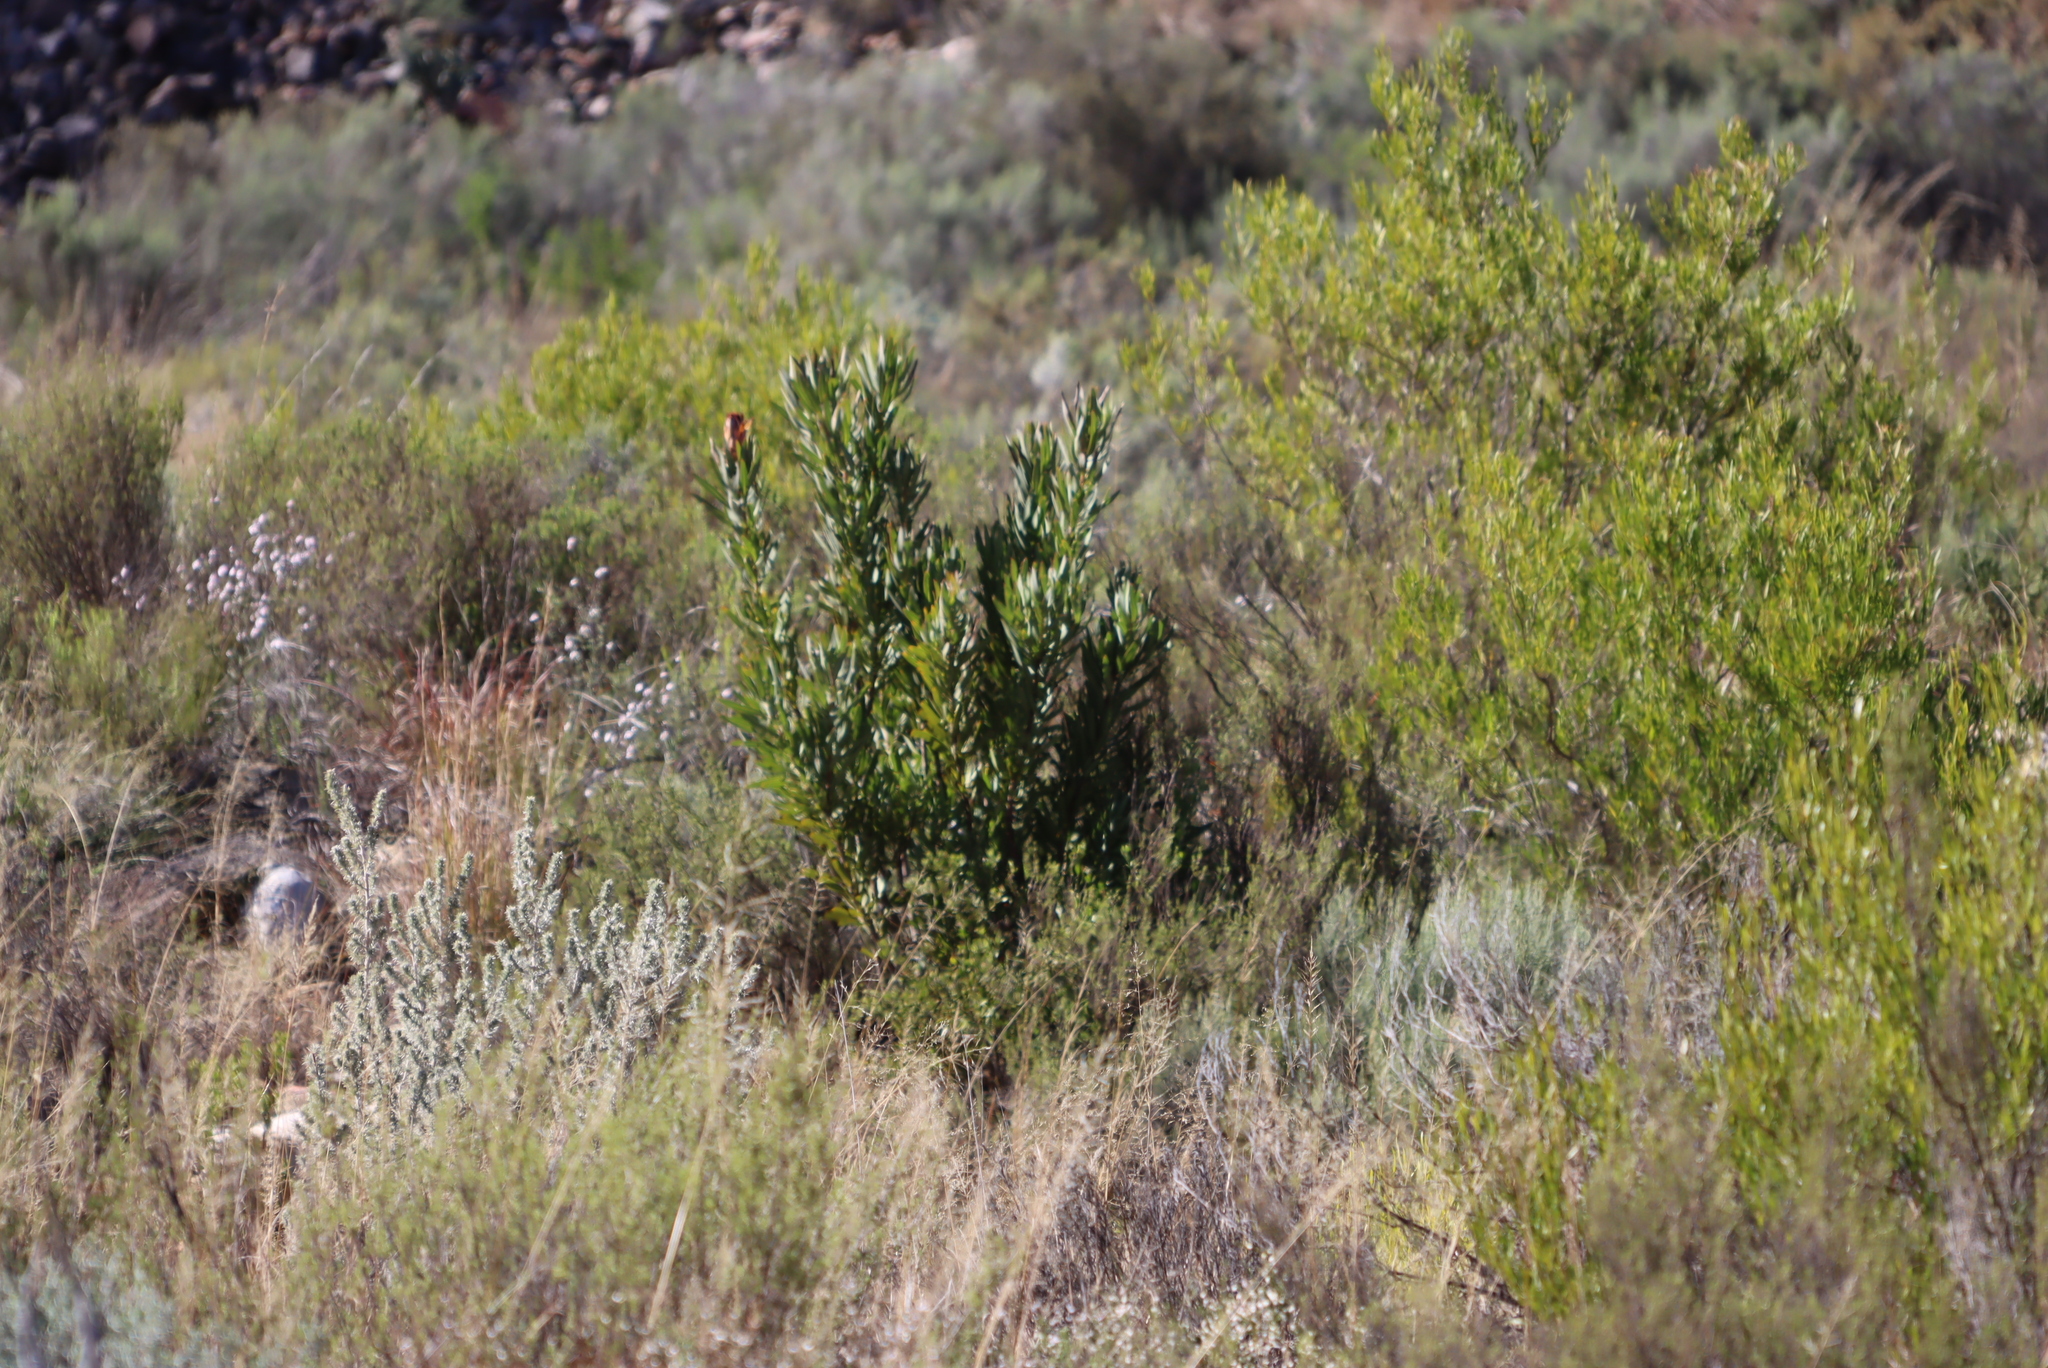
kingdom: Plantae
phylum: Tracheophyta
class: Magnoliopsida
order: Proteales
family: Proteaceae
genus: Protea
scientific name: Protea lorifolia
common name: Strap-leaved protea
